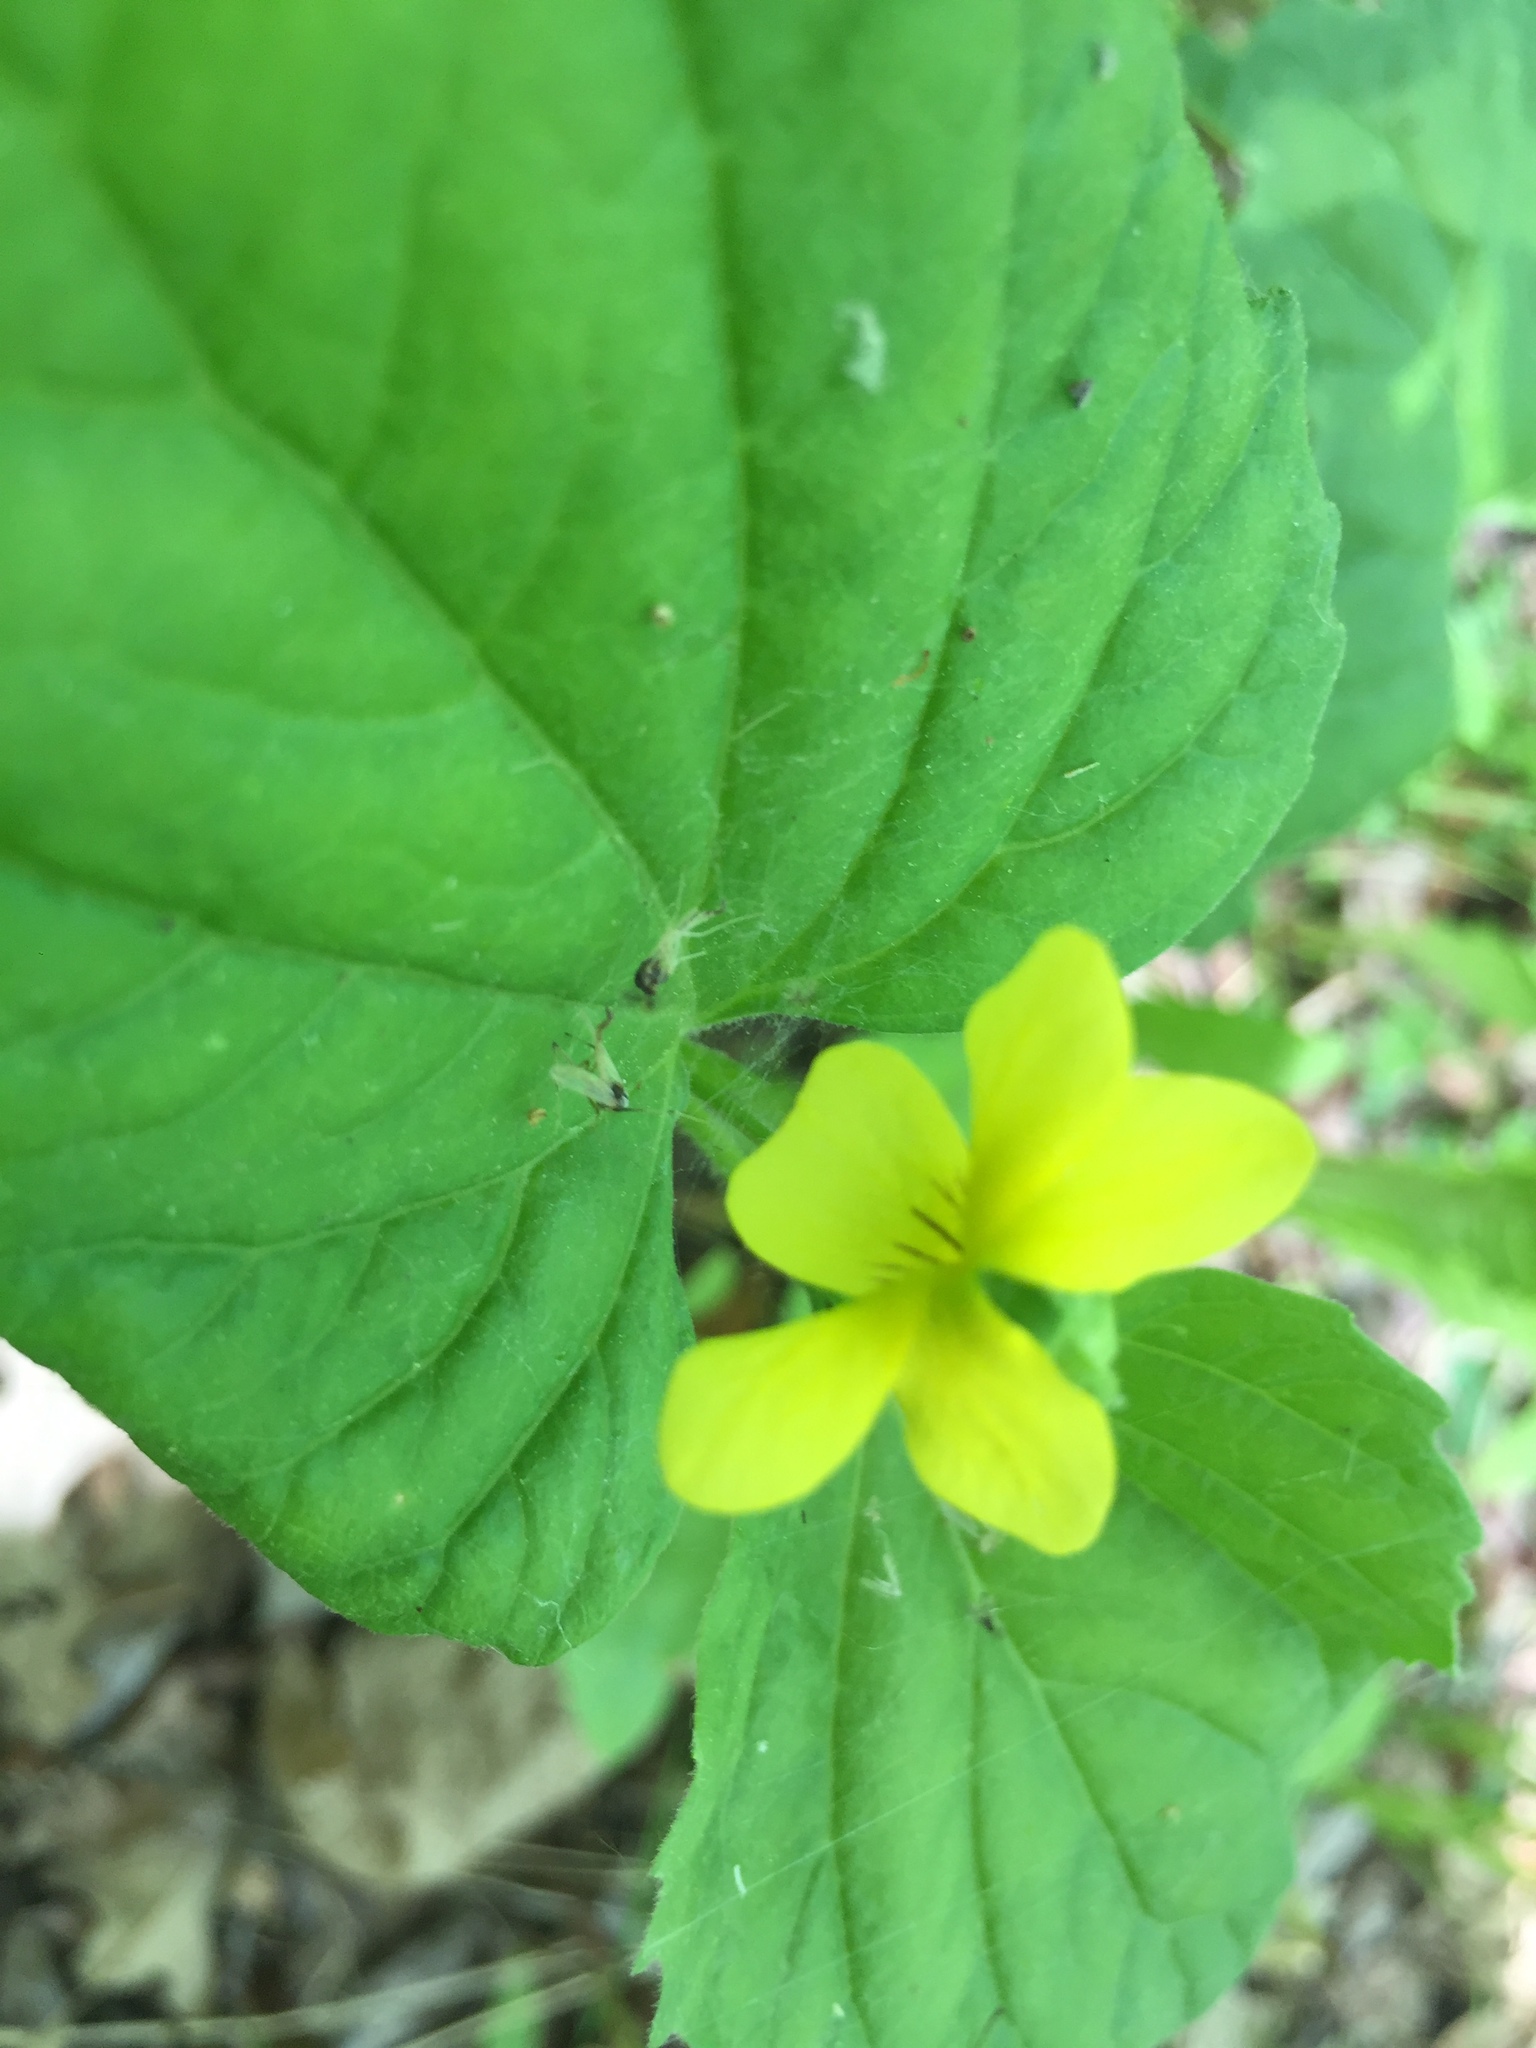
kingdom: Plantae
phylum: Tracheophyta
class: Magnoliopsida
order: Malpighiales
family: Violaceae
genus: Viola
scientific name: Viola eriocarpa
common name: Smooth yellow violet
